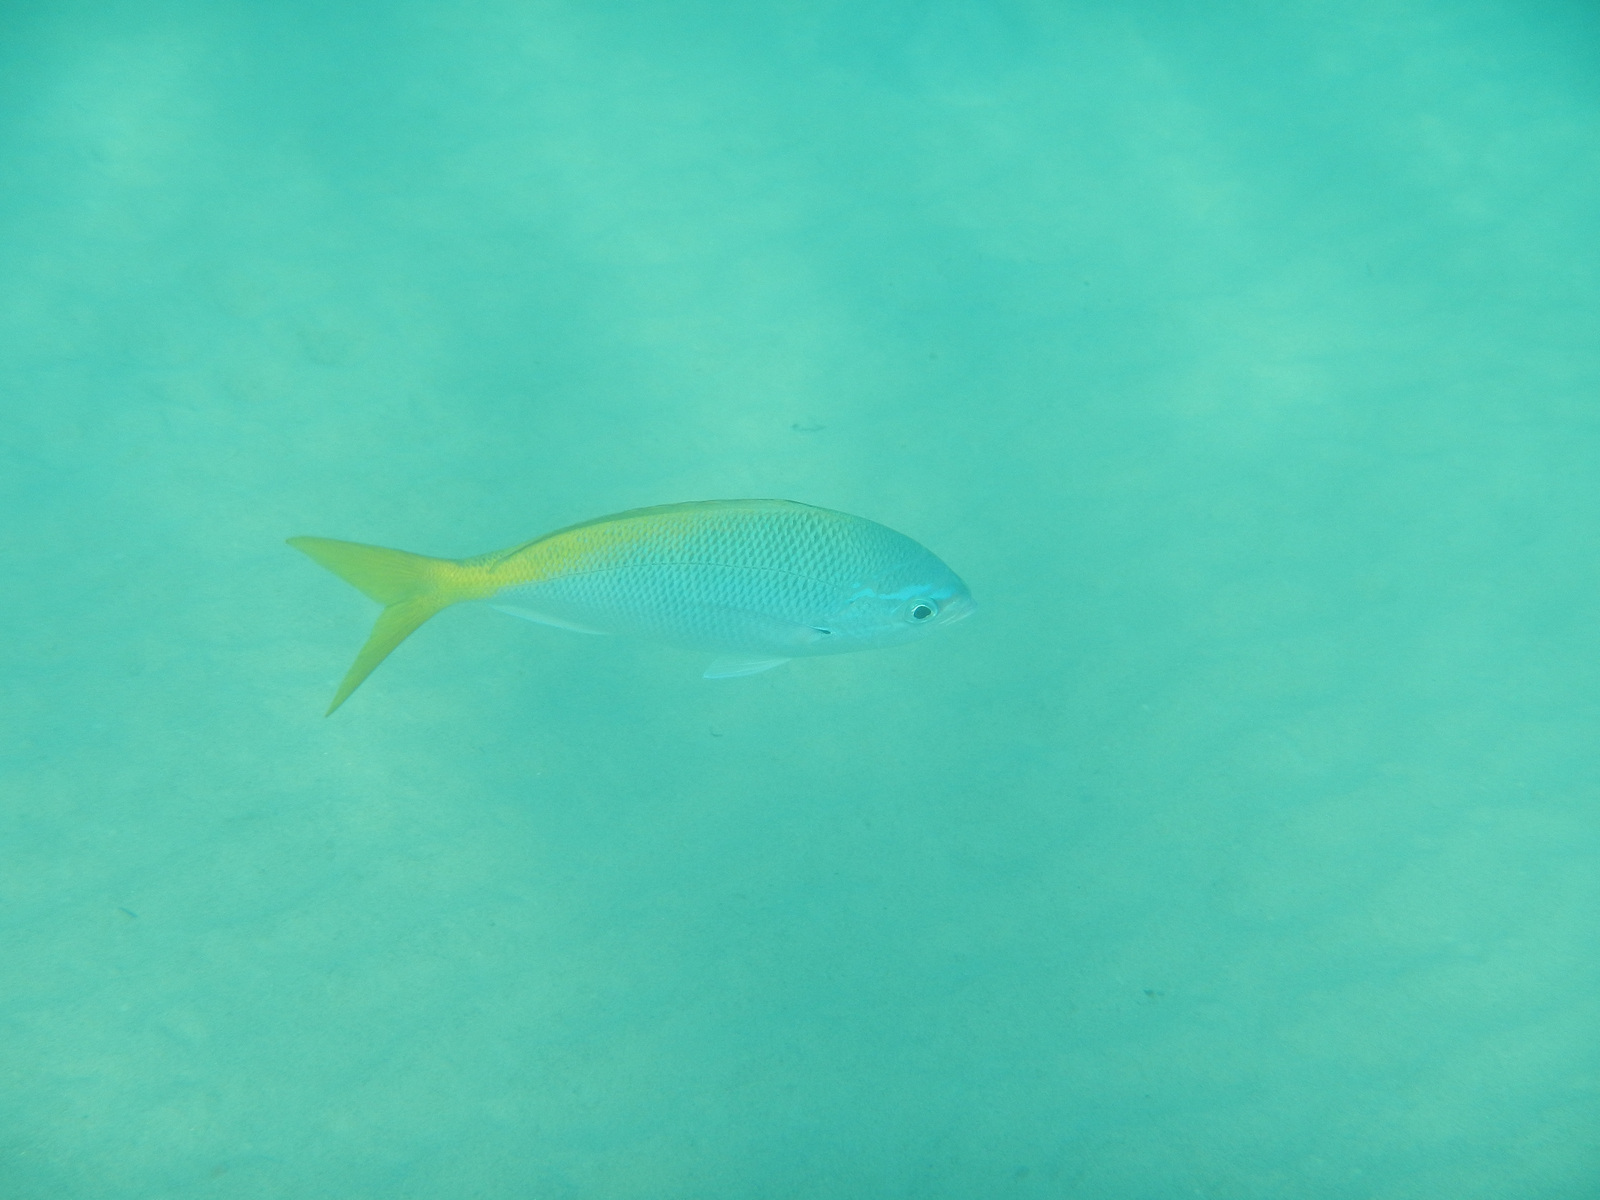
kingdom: Animalia
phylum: Chordata
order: Perciformes
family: Caesionidae
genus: Caesio
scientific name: Caesio cuning
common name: Red-bellied fusilier
